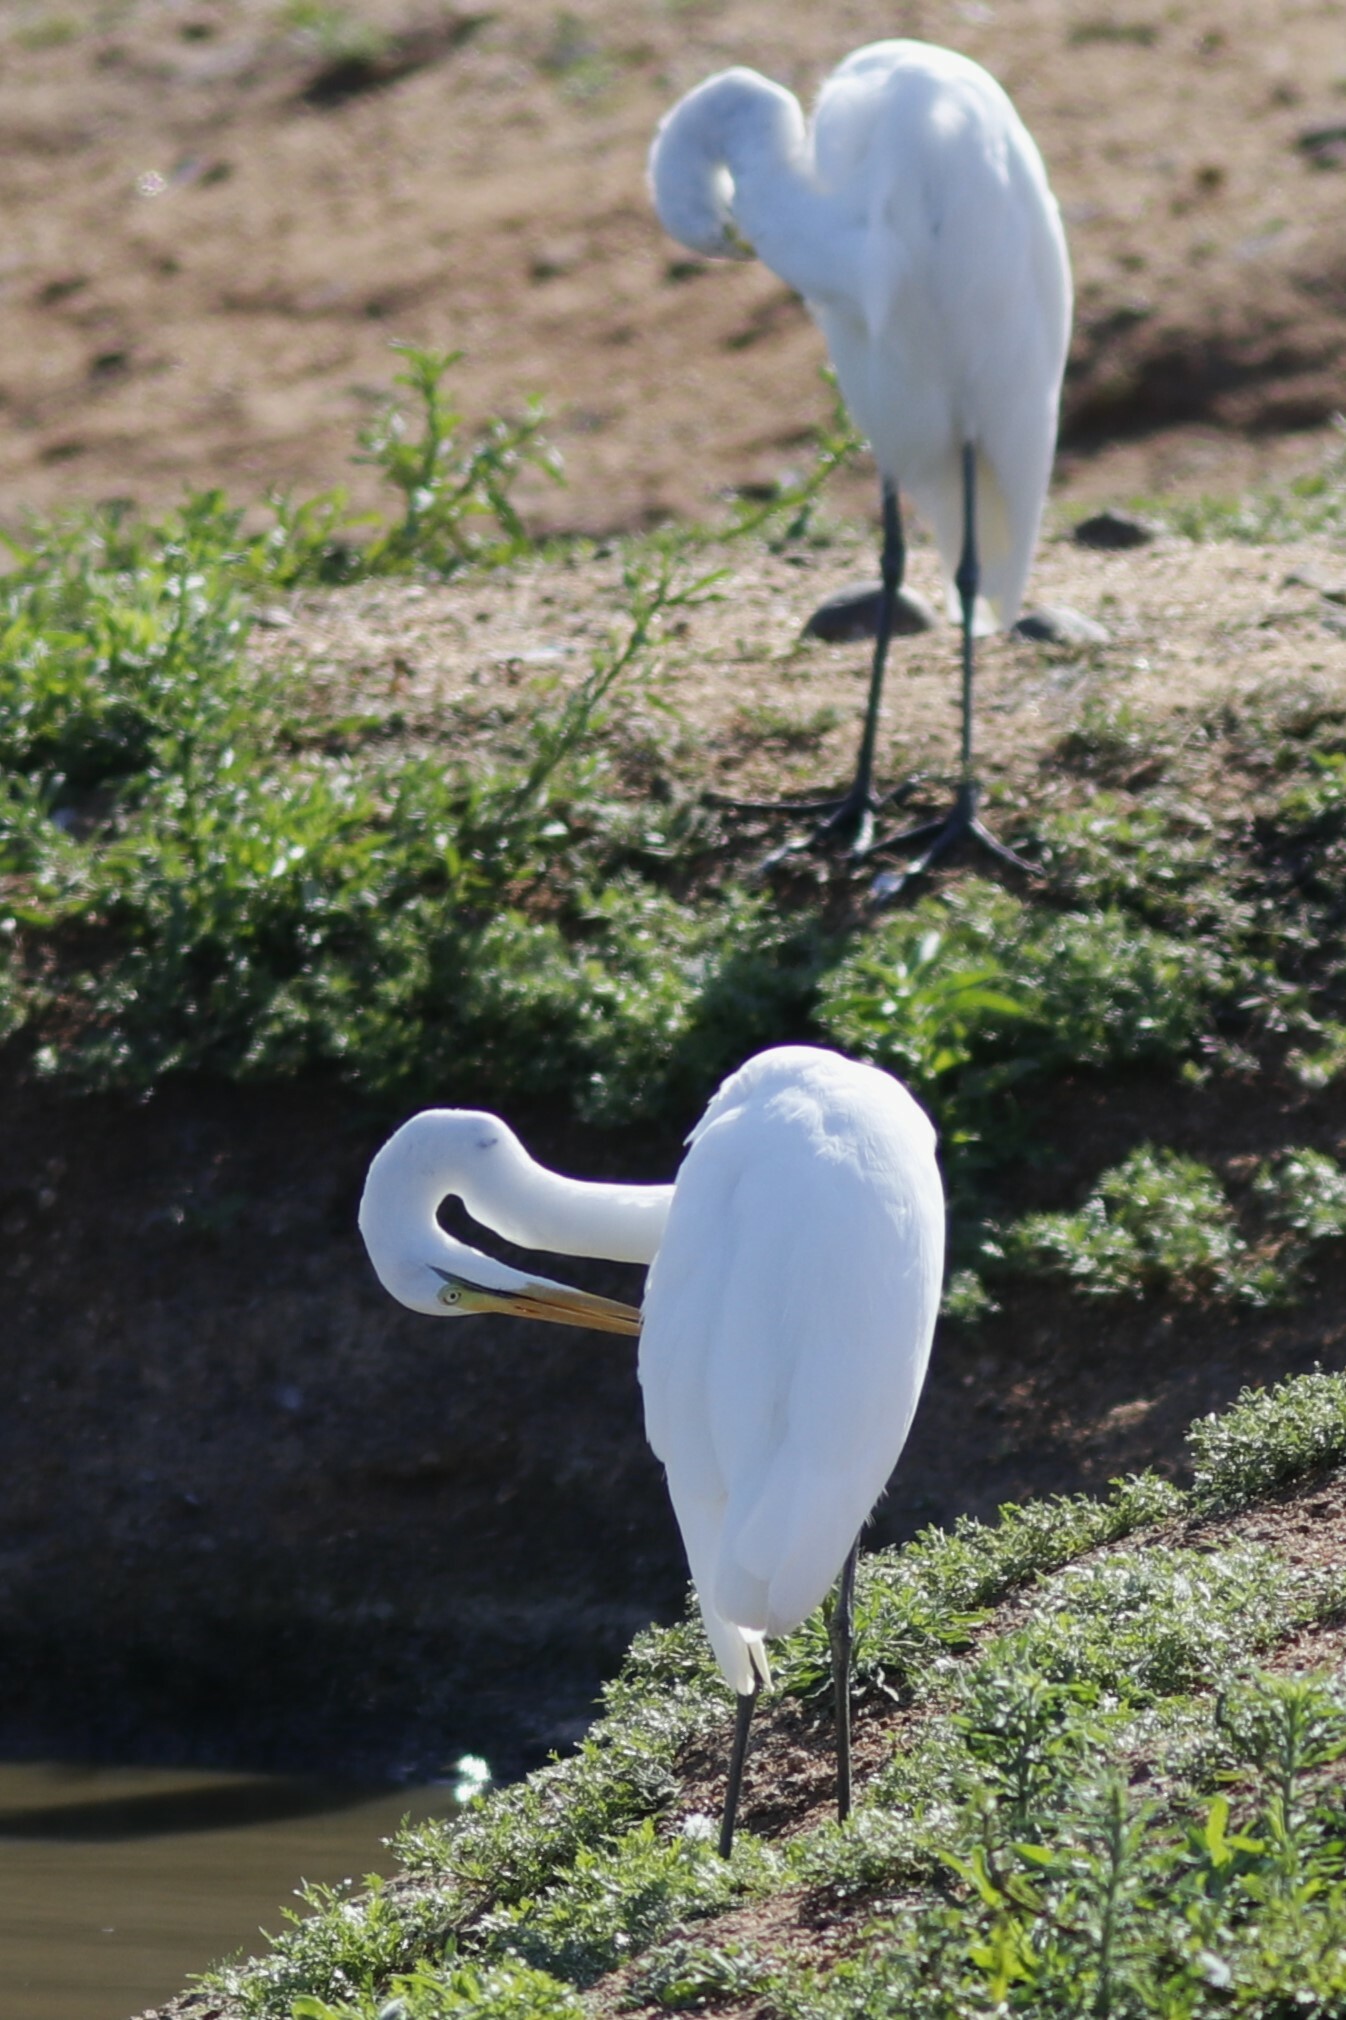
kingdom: Animalia
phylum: Chordata
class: Aves
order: Pelecaniformes
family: Ardeidae
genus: Ardea
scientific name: Ardea alba
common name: Great egret
